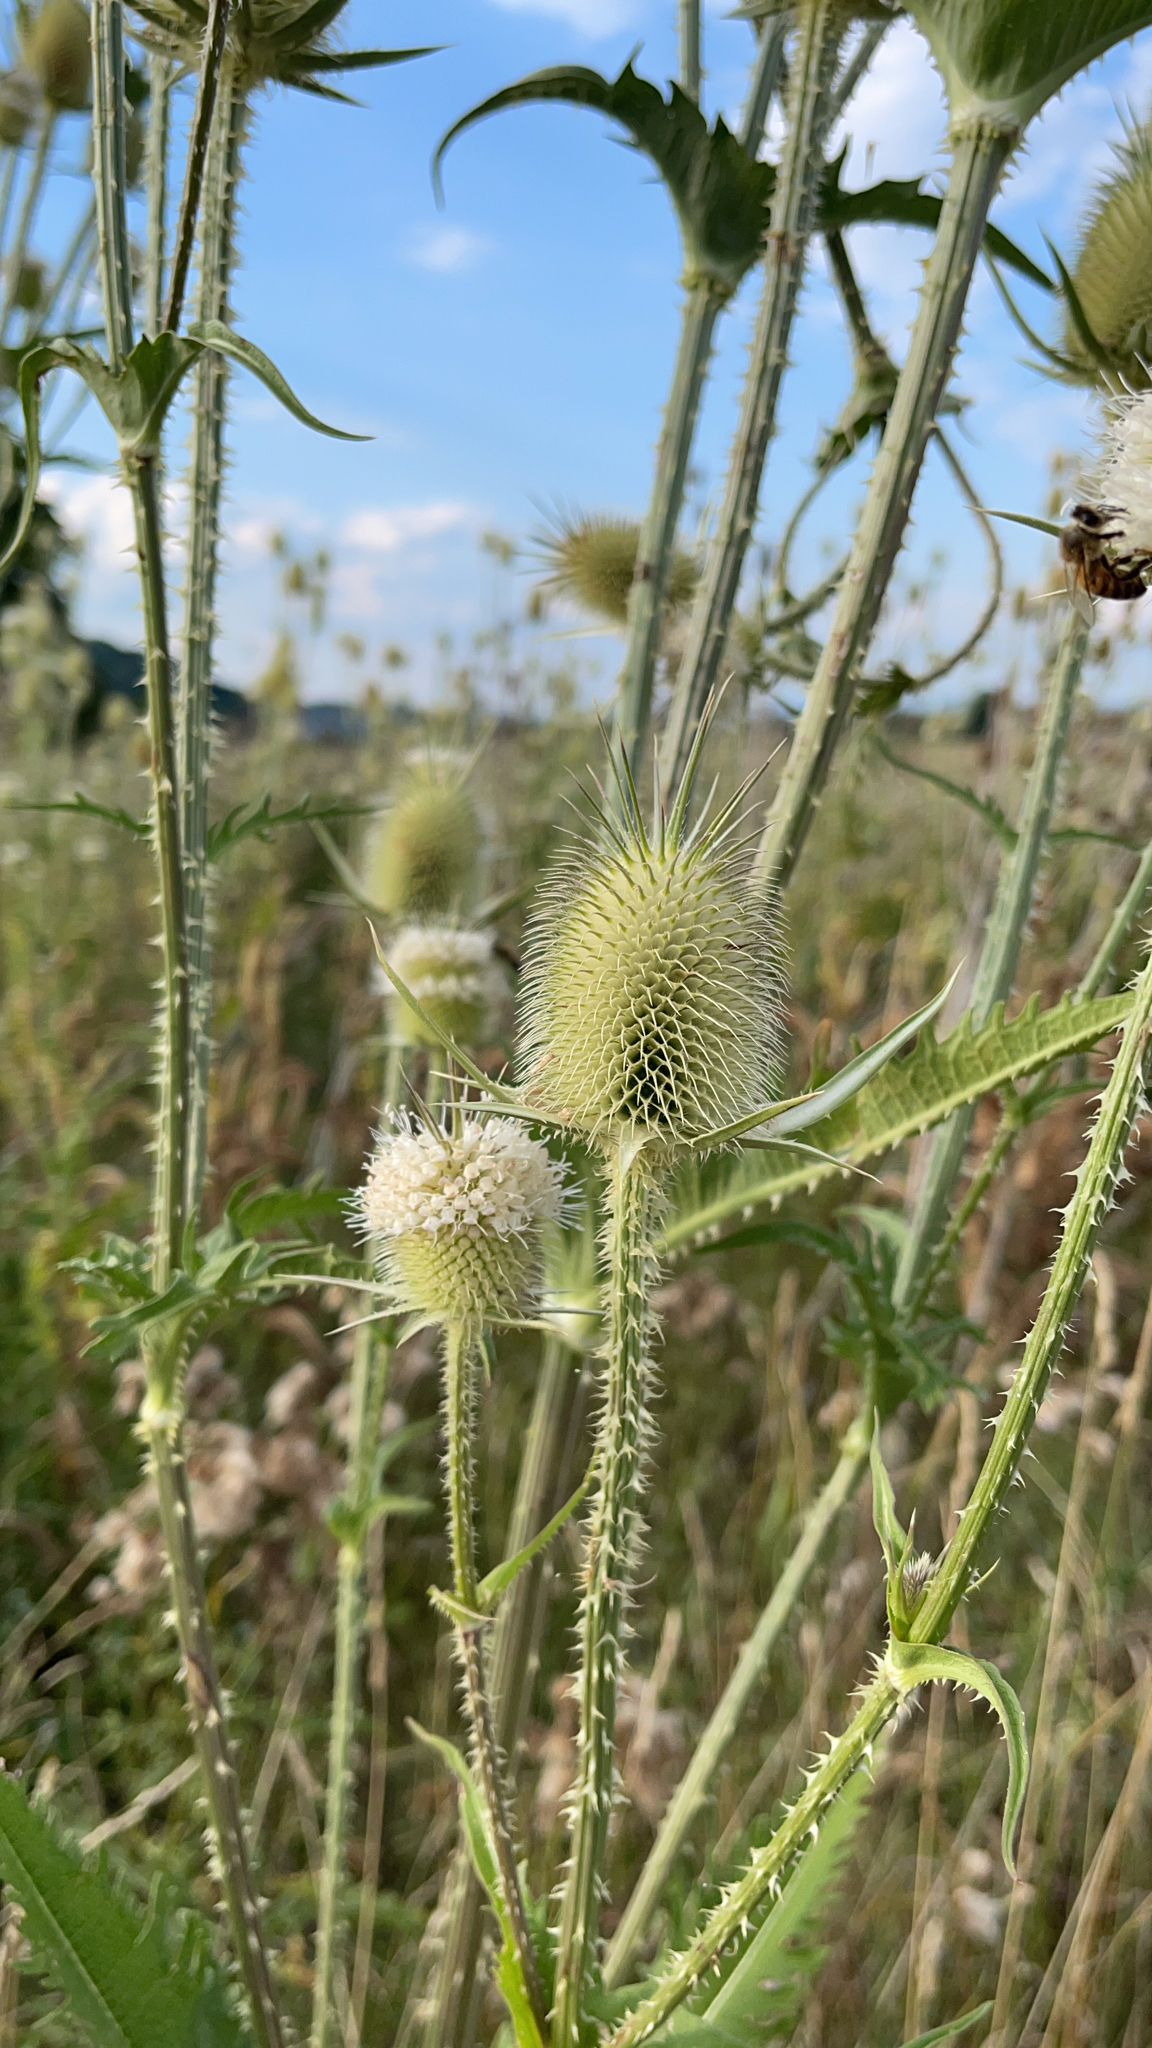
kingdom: Plantae
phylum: Tracheophyta
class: Magnoliopsida
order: Dipsacales
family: Caprifoliaceae
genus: Dipsacus
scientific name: Dipsacus laciniatus
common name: Cut-leaved teasel
